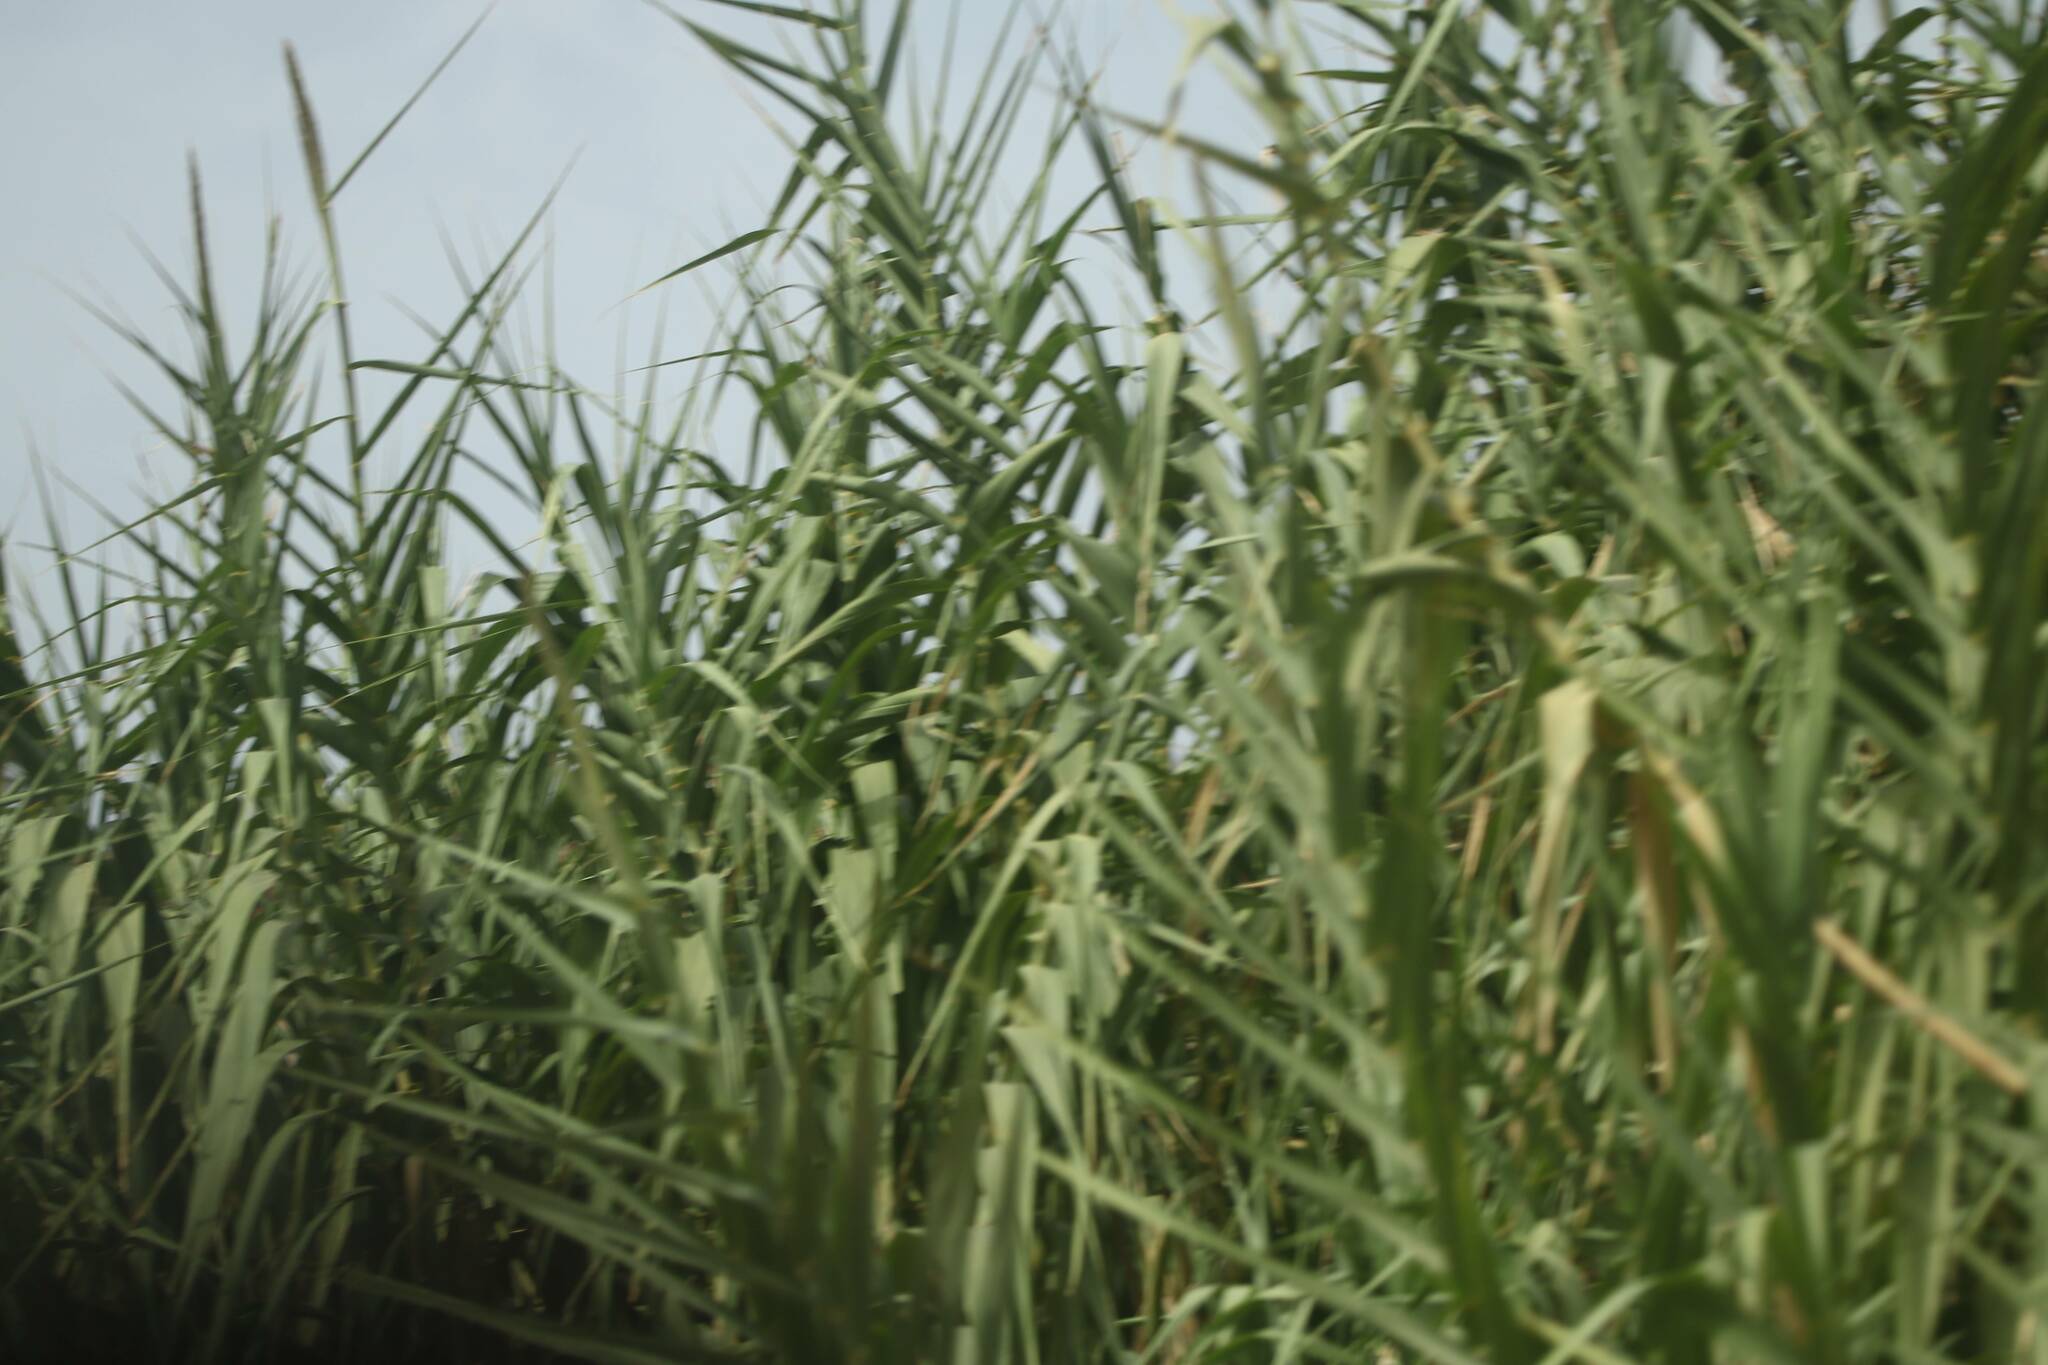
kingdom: Plantae
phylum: Tracheophyta
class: Liliopsida
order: Poales
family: Poaceae
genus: Arundo
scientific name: Arundo donax
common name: Giant reed
